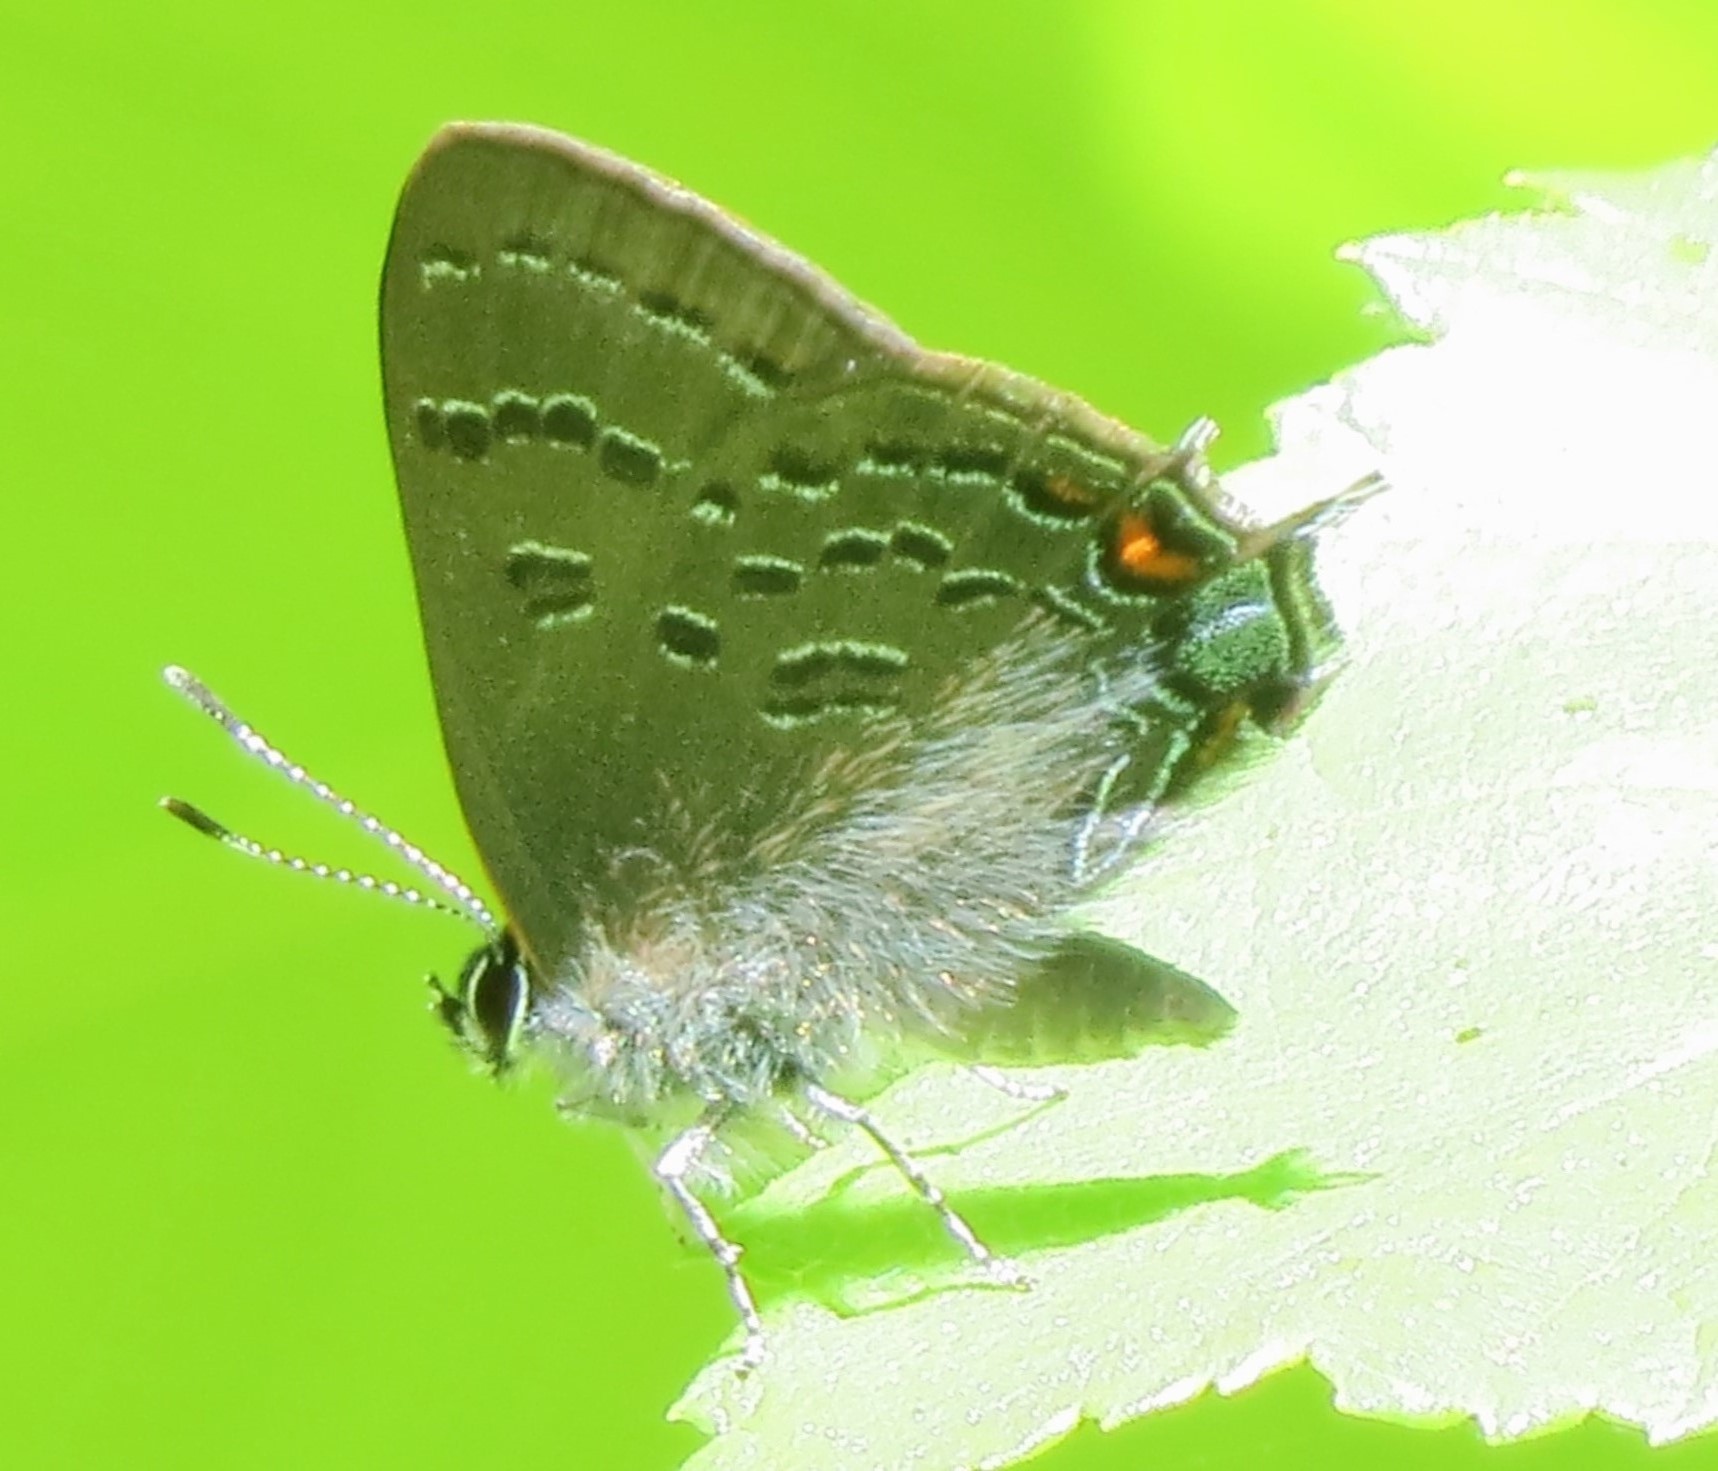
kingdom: Animalia
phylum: Arthropoda
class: Insecta
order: Lepidoptera
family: Lycaenidae
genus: Satyrium
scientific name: Satyrium calanus
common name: Banded hairstreak
